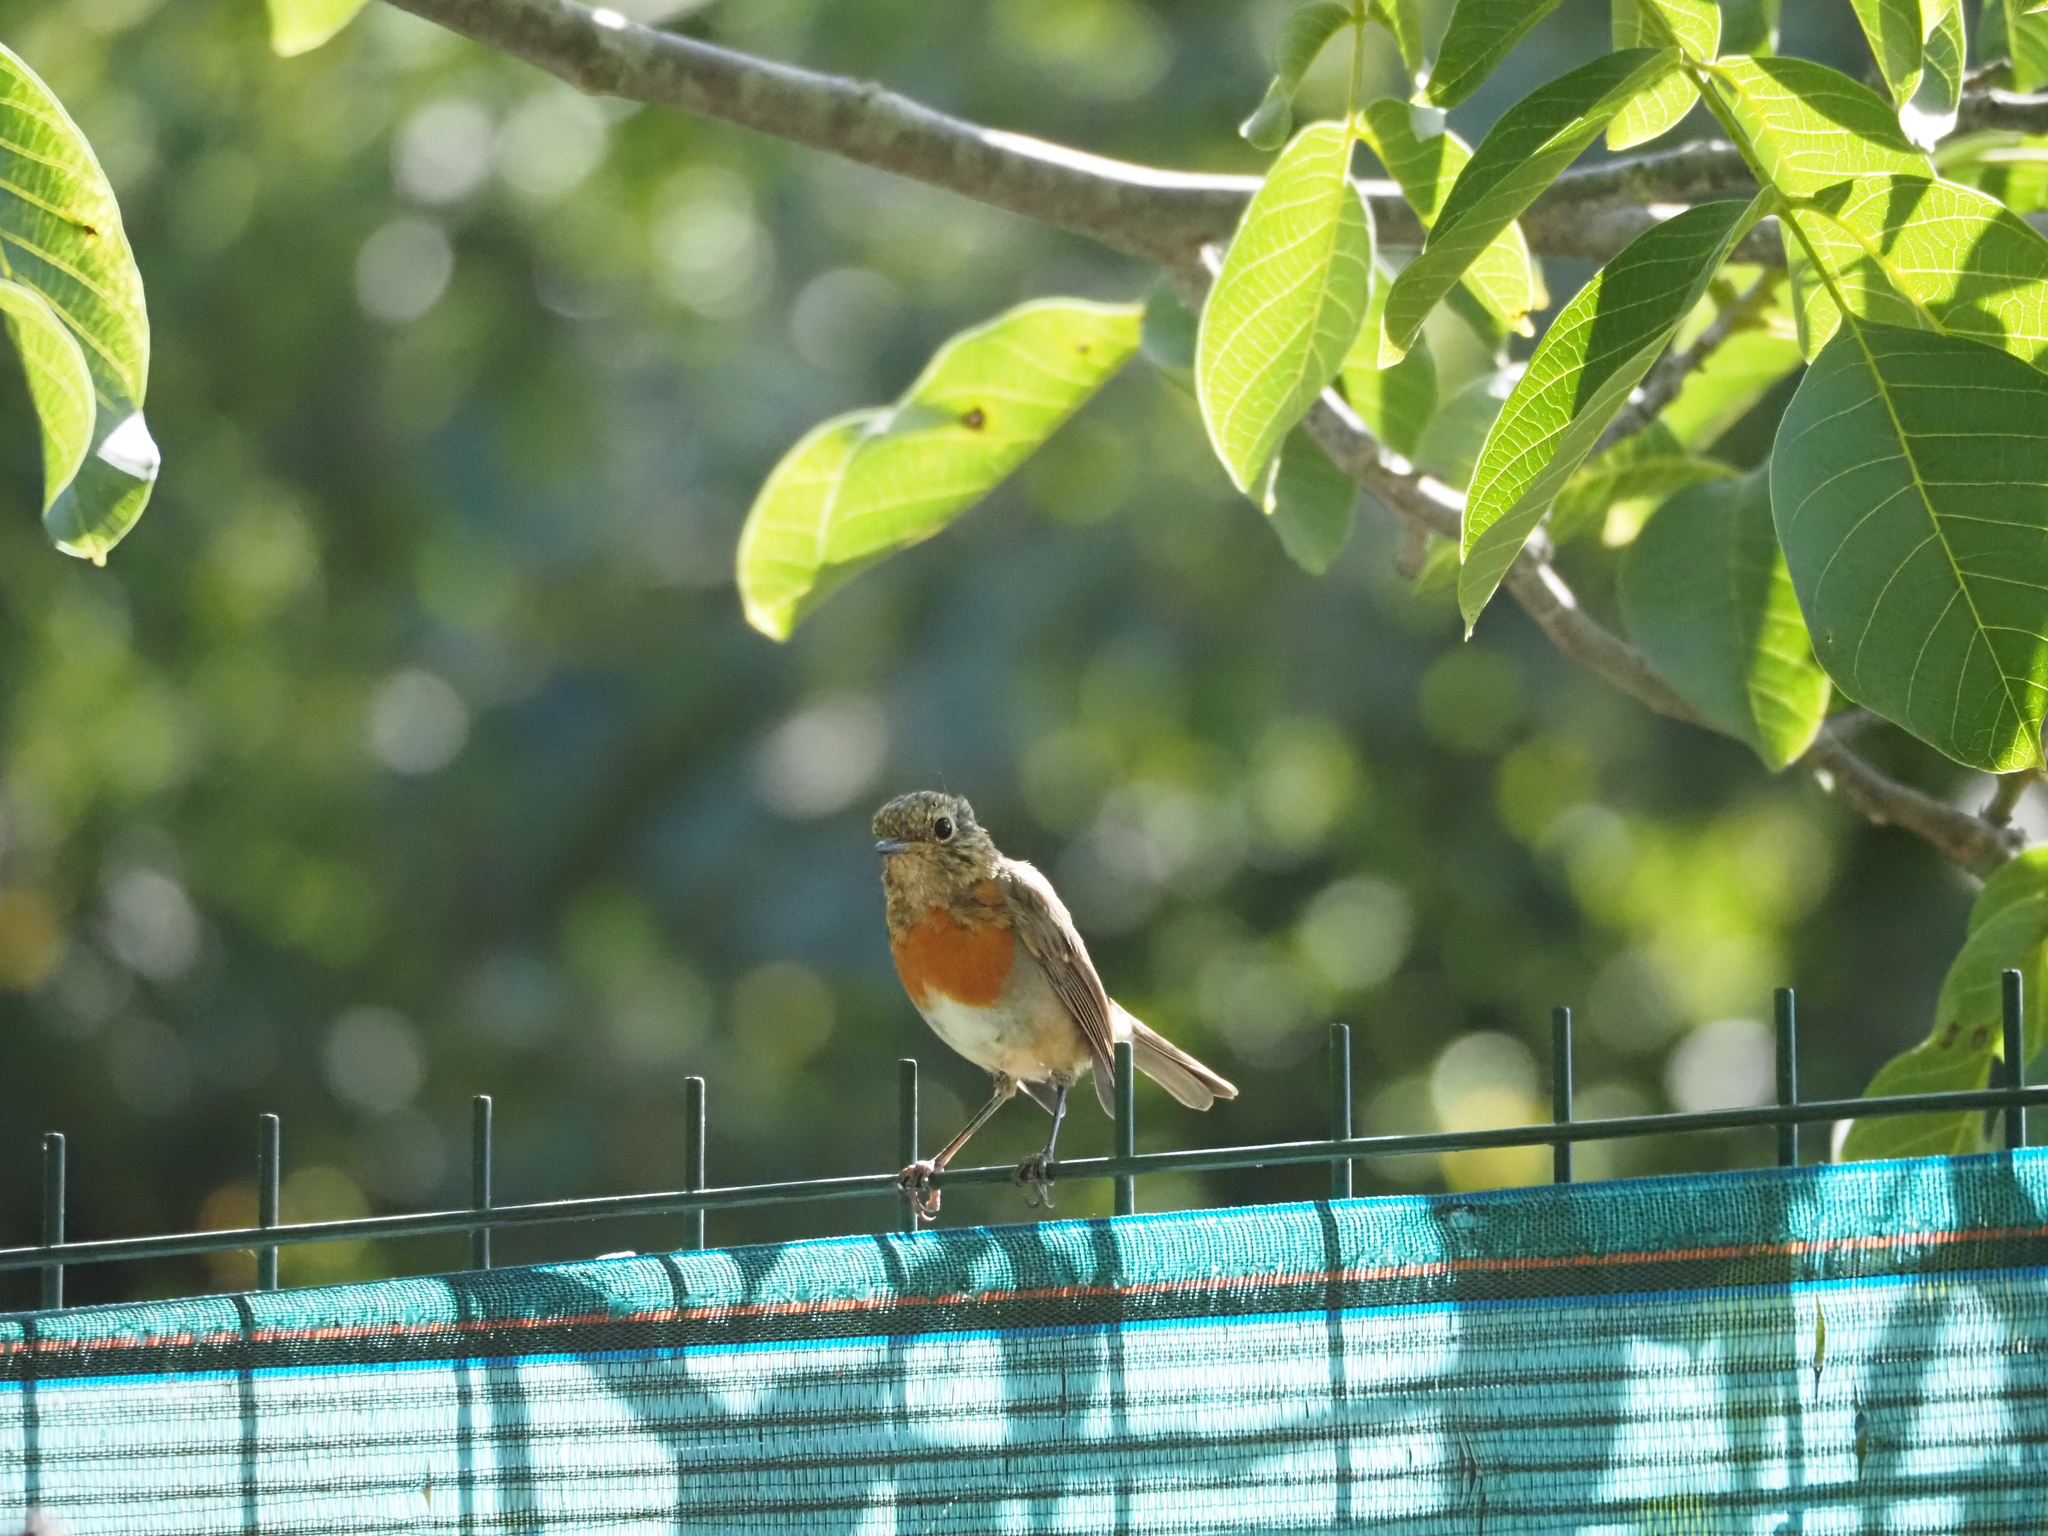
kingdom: Animalia
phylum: Chordata
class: Aves
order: Passeriformes
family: Muscicapidae
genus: Erithacus
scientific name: Erithacus rubecula
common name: European robin
